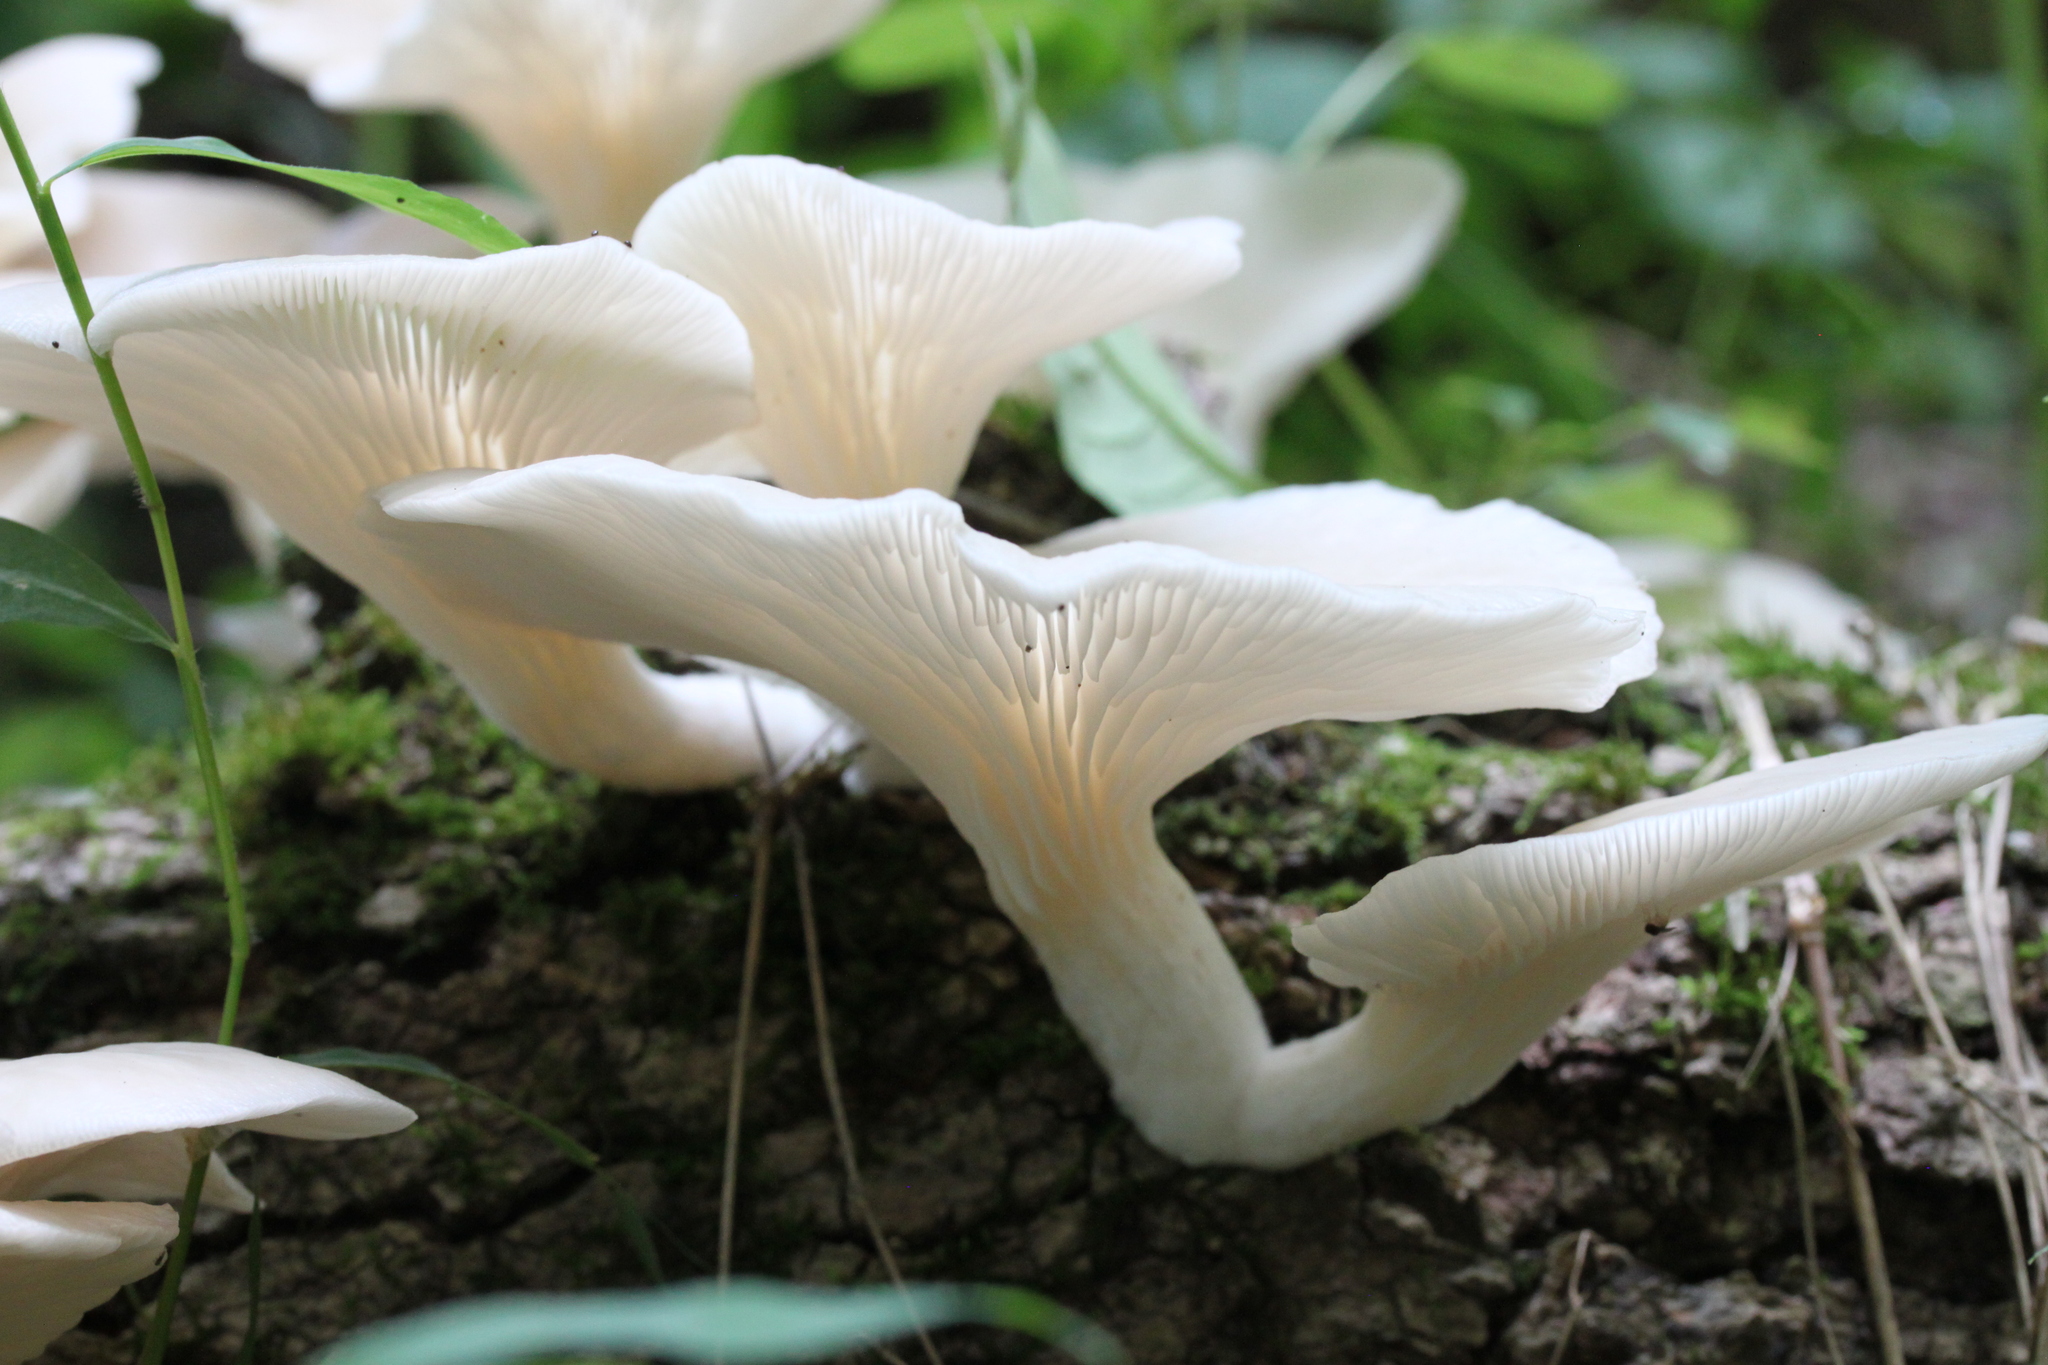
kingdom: Fungi
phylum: Basidiomycota
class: Agaricomycetes
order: Agaricales
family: Pleurotaceae
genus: Pleurotus
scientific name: Pleurotus pulmonarius
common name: Pale oyster
